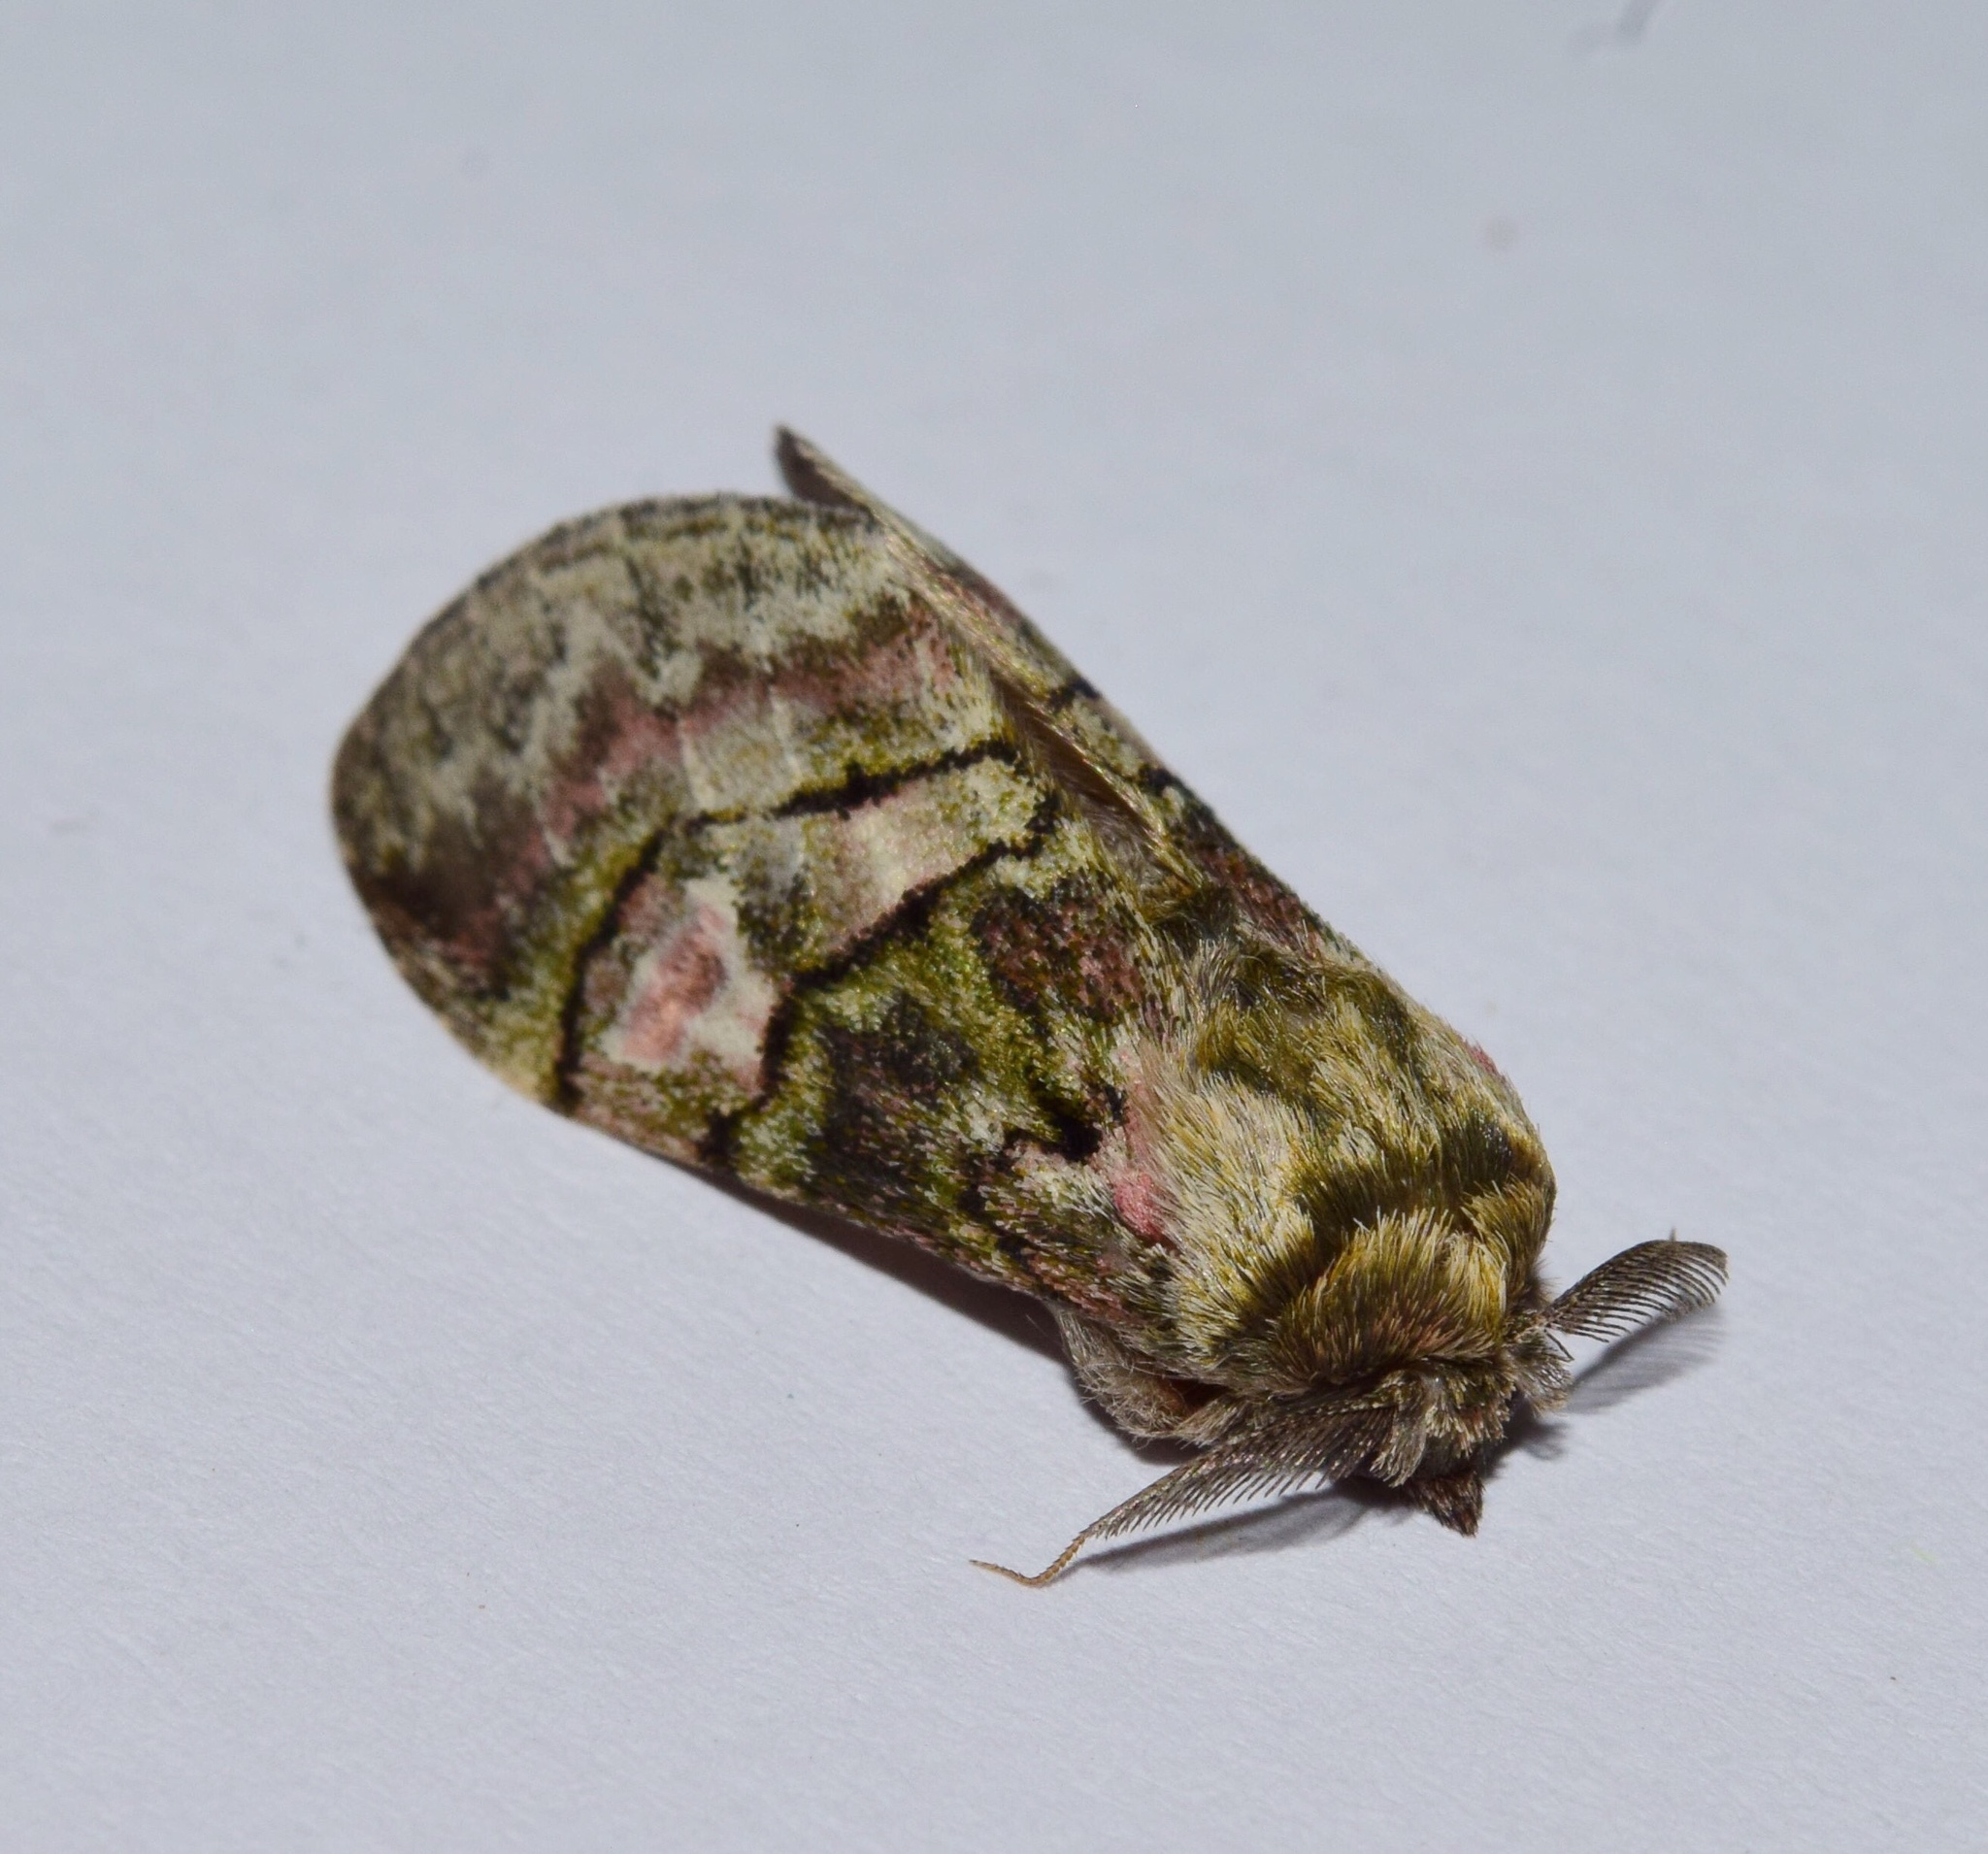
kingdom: Animalia
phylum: Arthropoda
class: Insecta
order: Lepidoptera
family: Notodontidae
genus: Rhenea
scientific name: Rhenea michii
